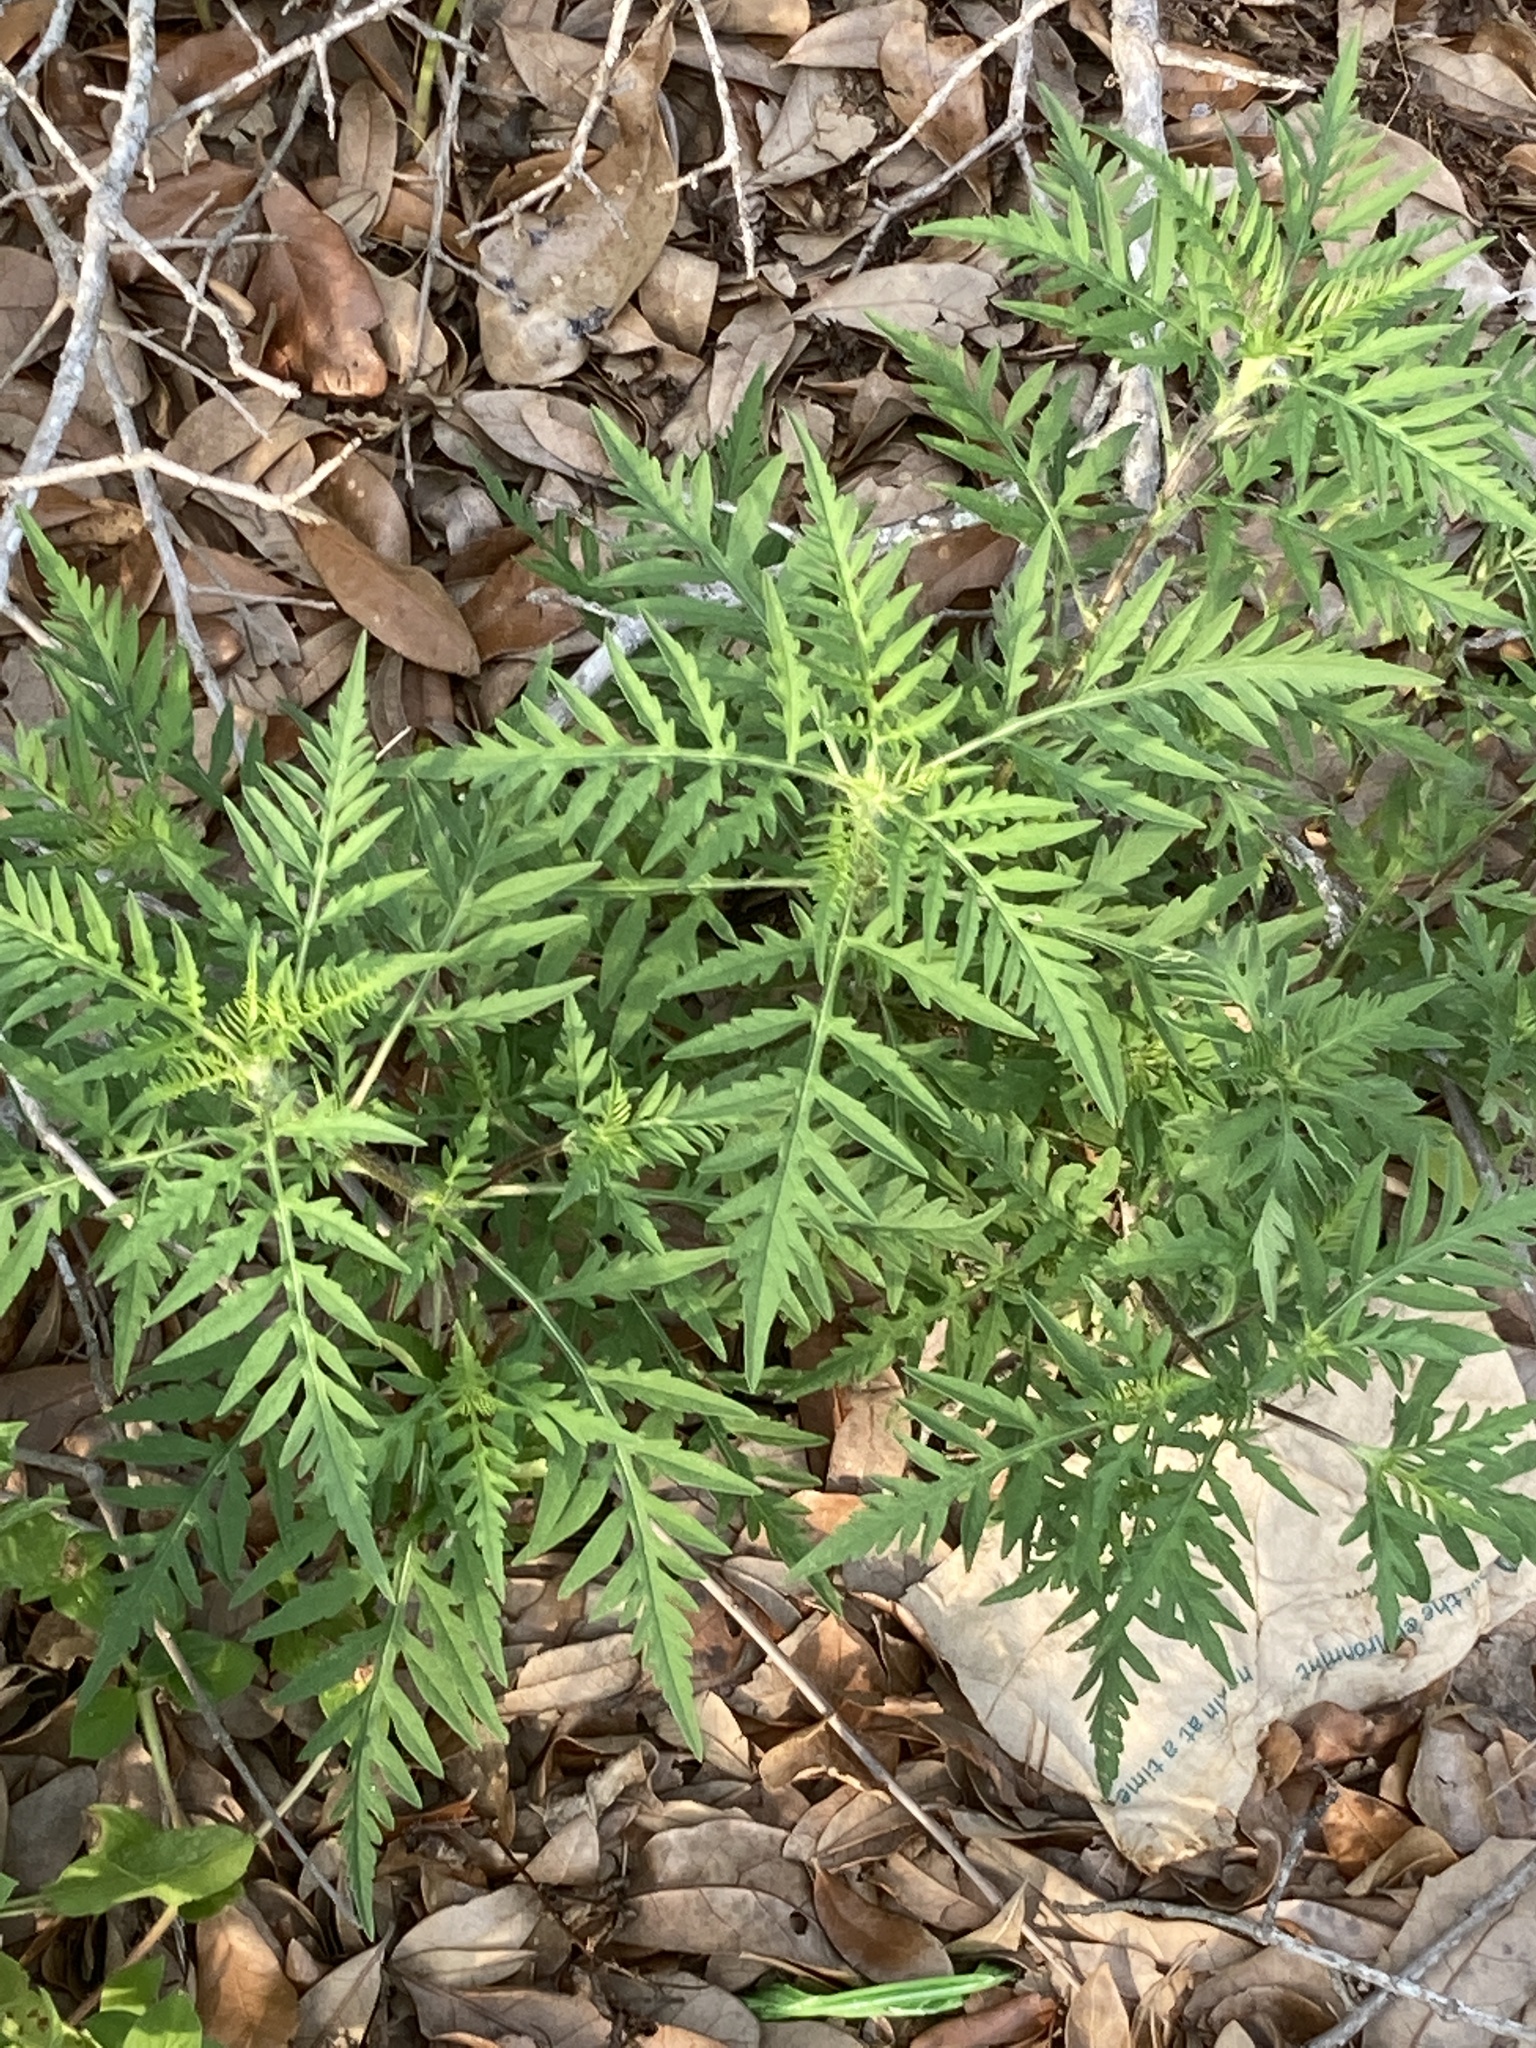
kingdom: Plantae
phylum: Tracheophyta
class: Magnoliopsida
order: Asterales
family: Asteraceae
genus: Ambrosia
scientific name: Ambrosia artemisiifolia
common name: Annual ragweed
